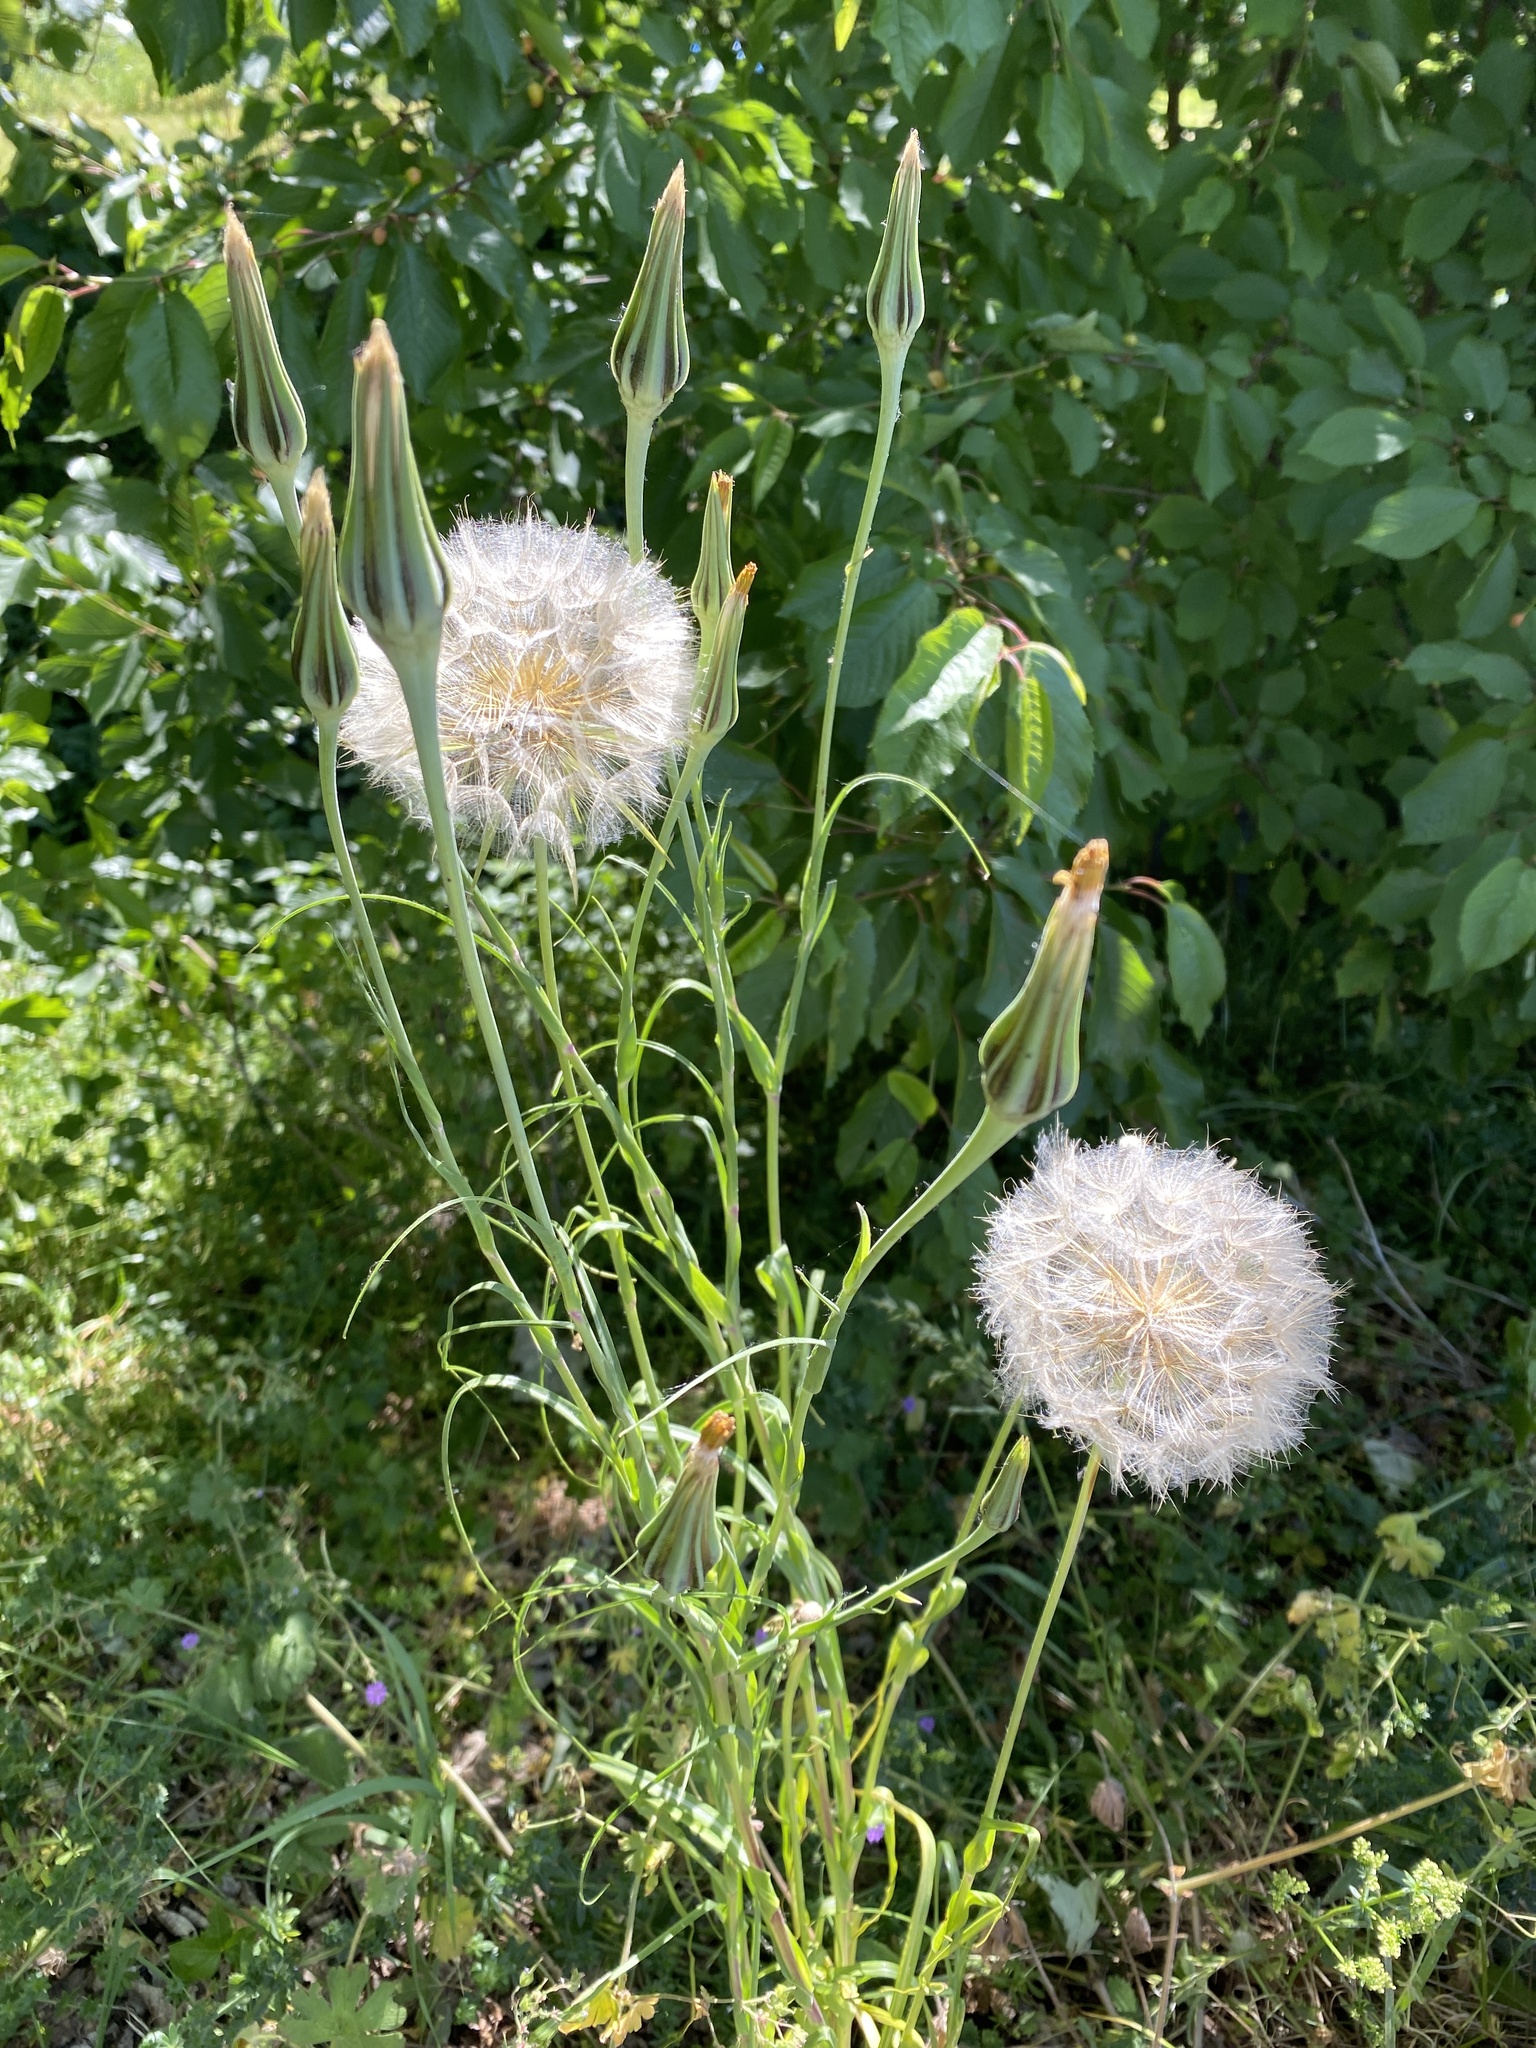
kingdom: Plantae
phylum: Tracheophyta
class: Magnoliopsida
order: Asterales
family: Asteraceae
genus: Tragopogon
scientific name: Tragopogon pratensis
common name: Goat's-beard
